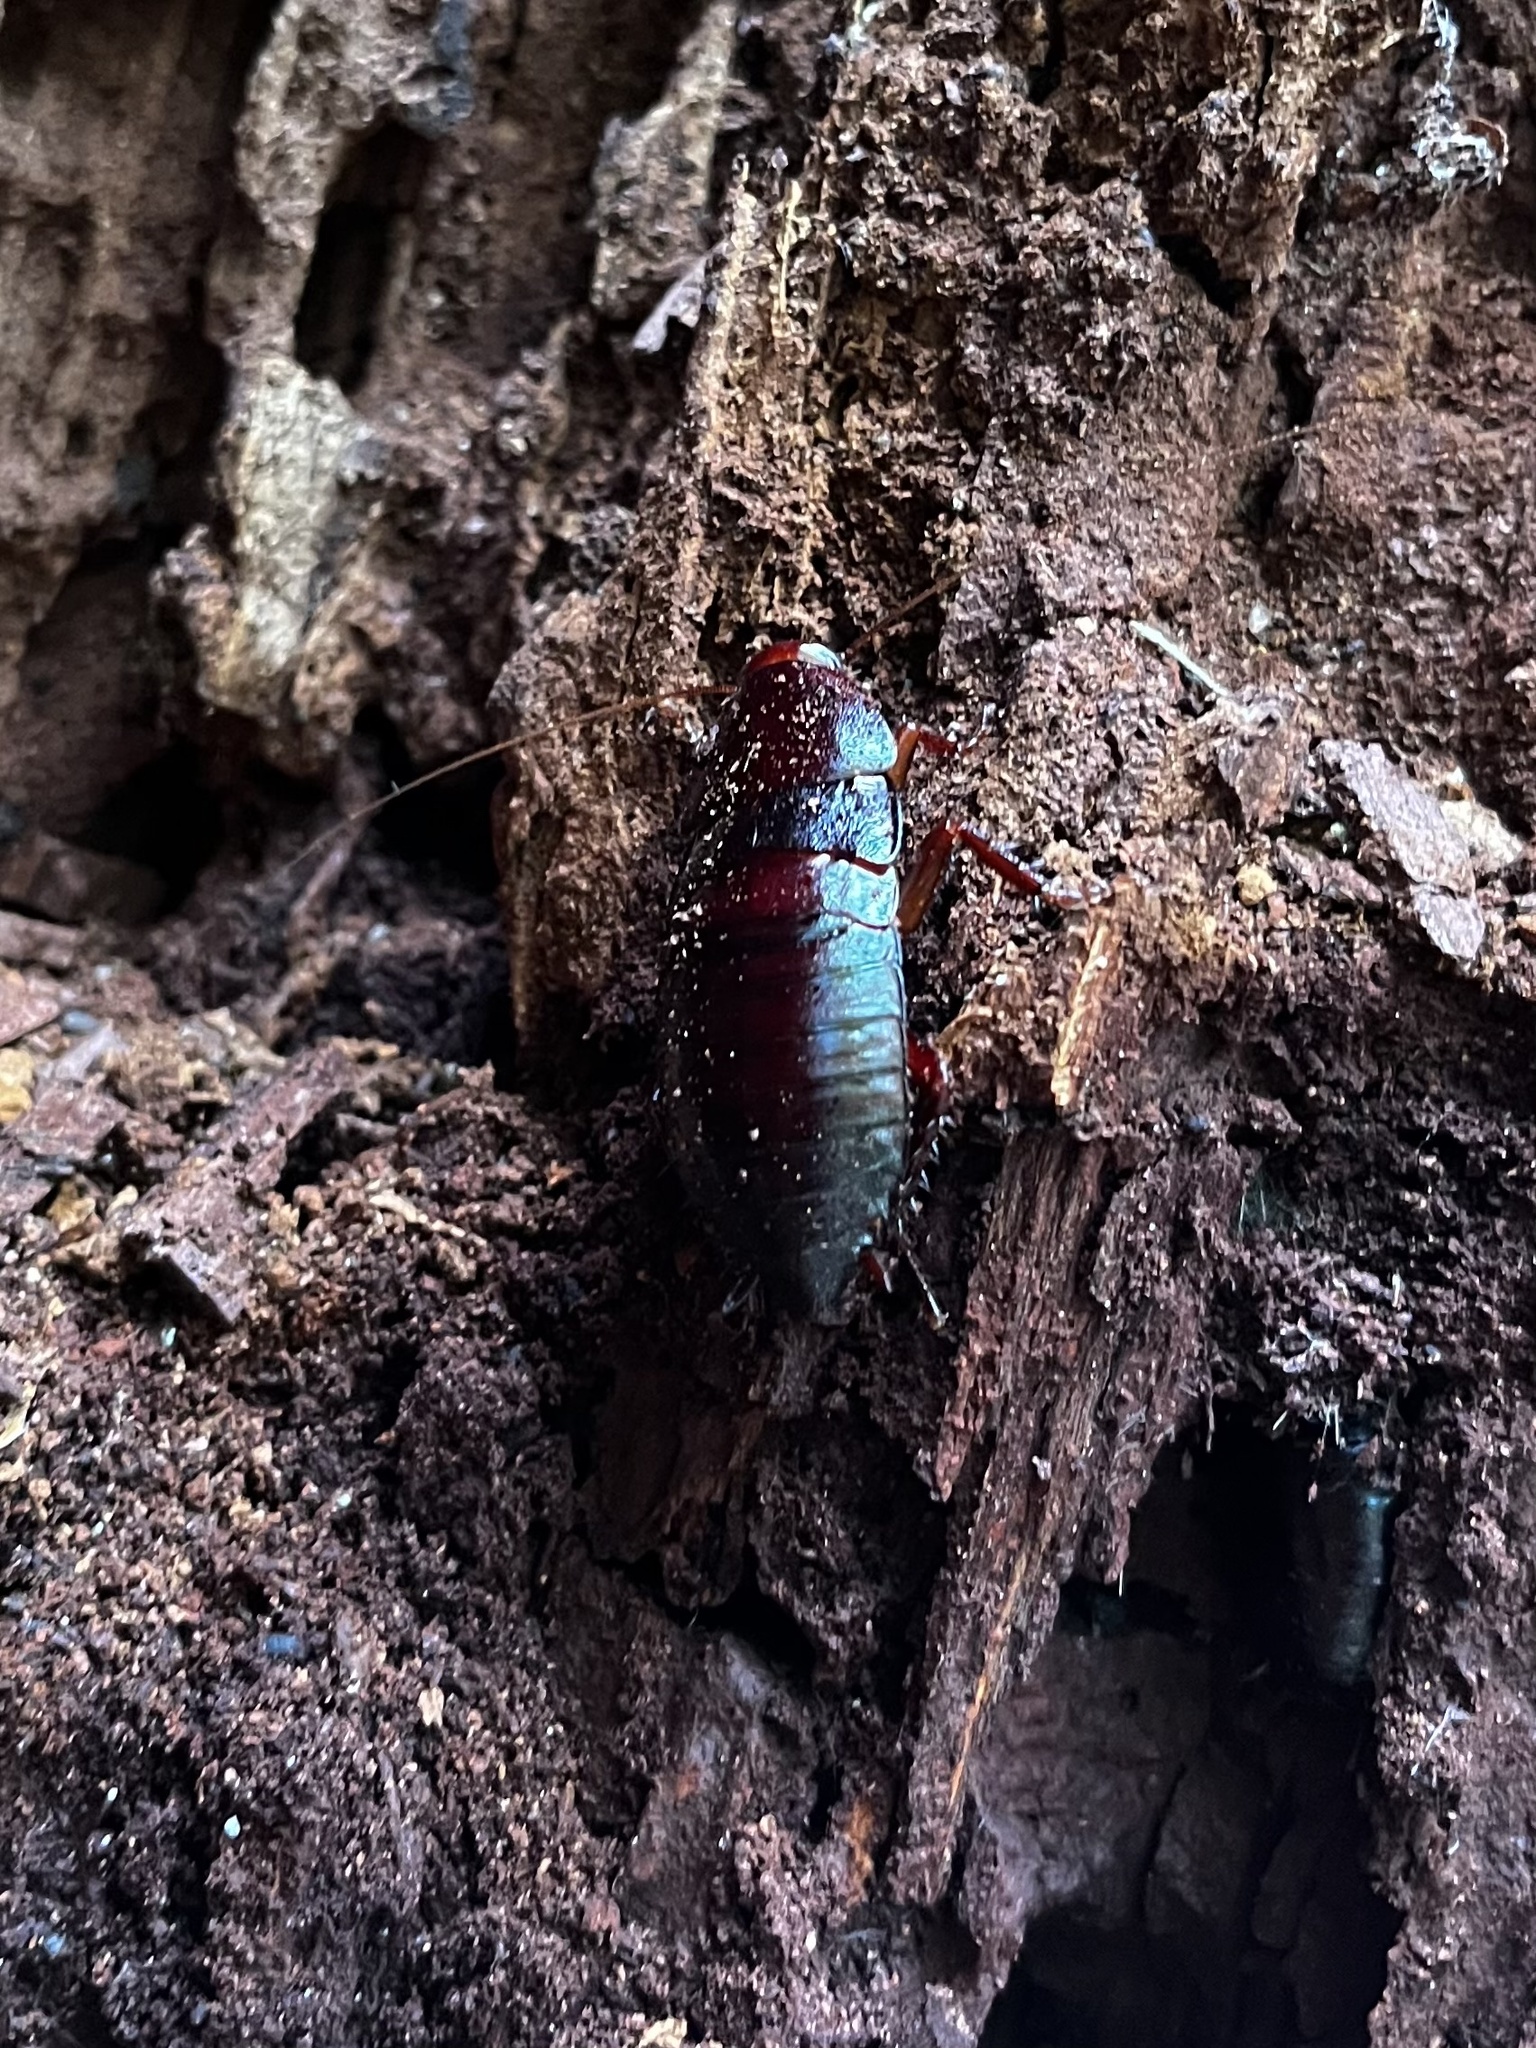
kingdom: Animalia
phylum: Arthropoda
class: Insecta
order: Blattodea
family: Blattidae
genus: Eurycotis
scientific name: Eurycotis floridana
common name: Florida cockroach
